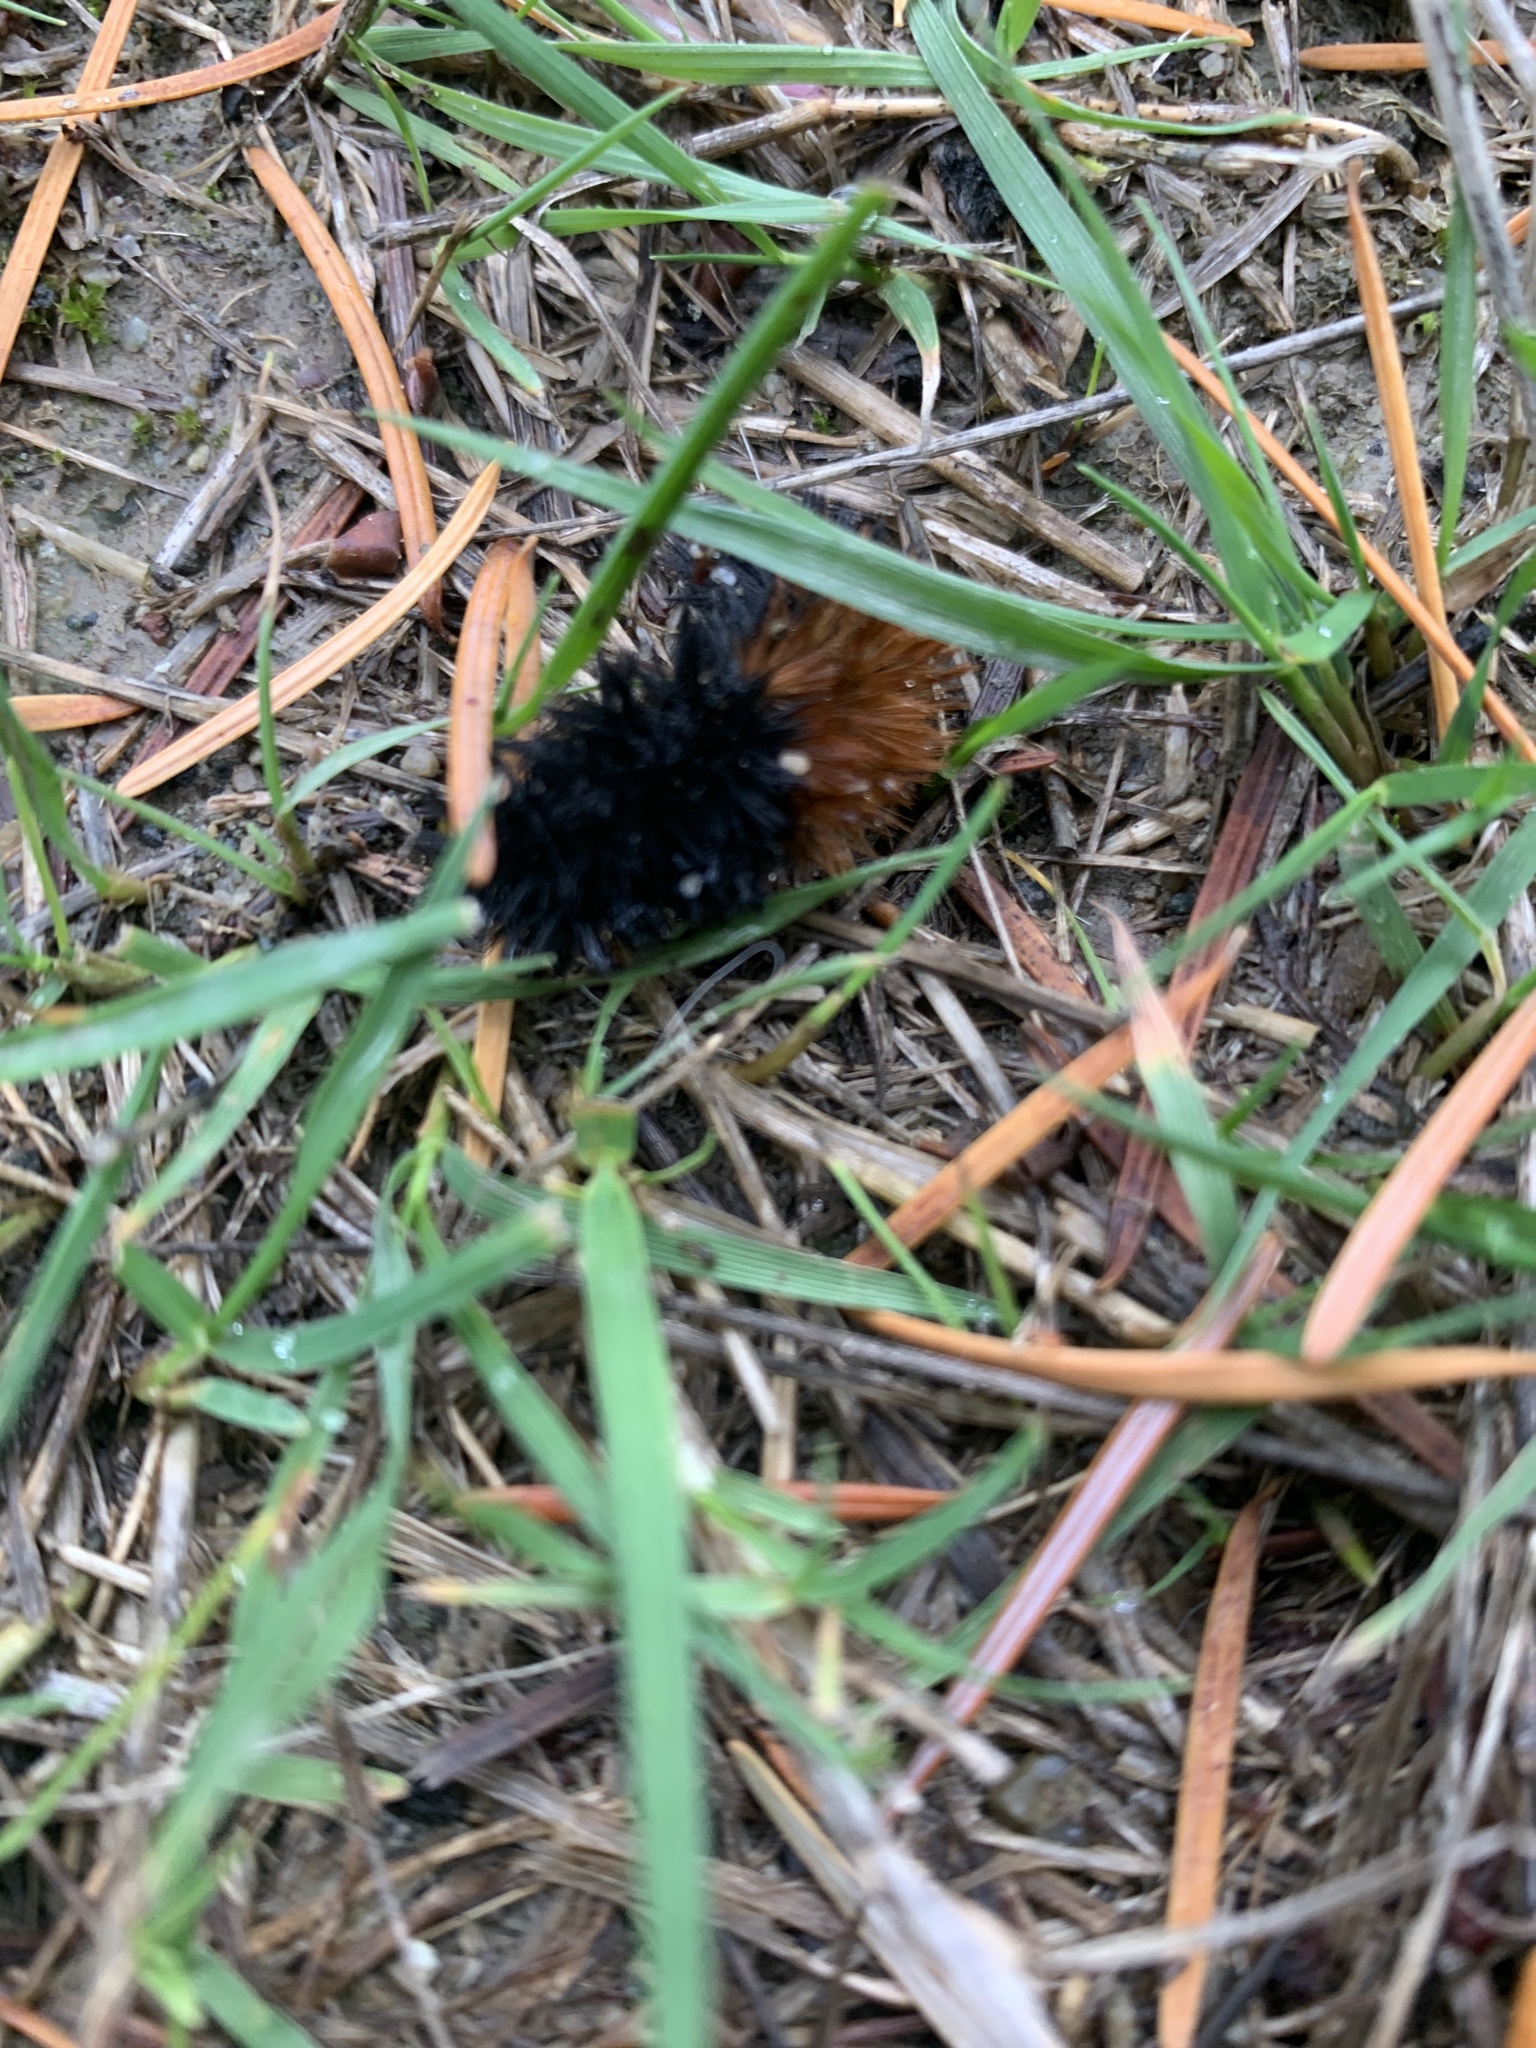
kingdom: Animalia
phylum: Arthropoda
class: Insecta
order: Lepidoptera
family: Erebidae
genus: Pyrrharctia
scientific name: Pyrrharctia isabella
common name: Isabella tiger moth
